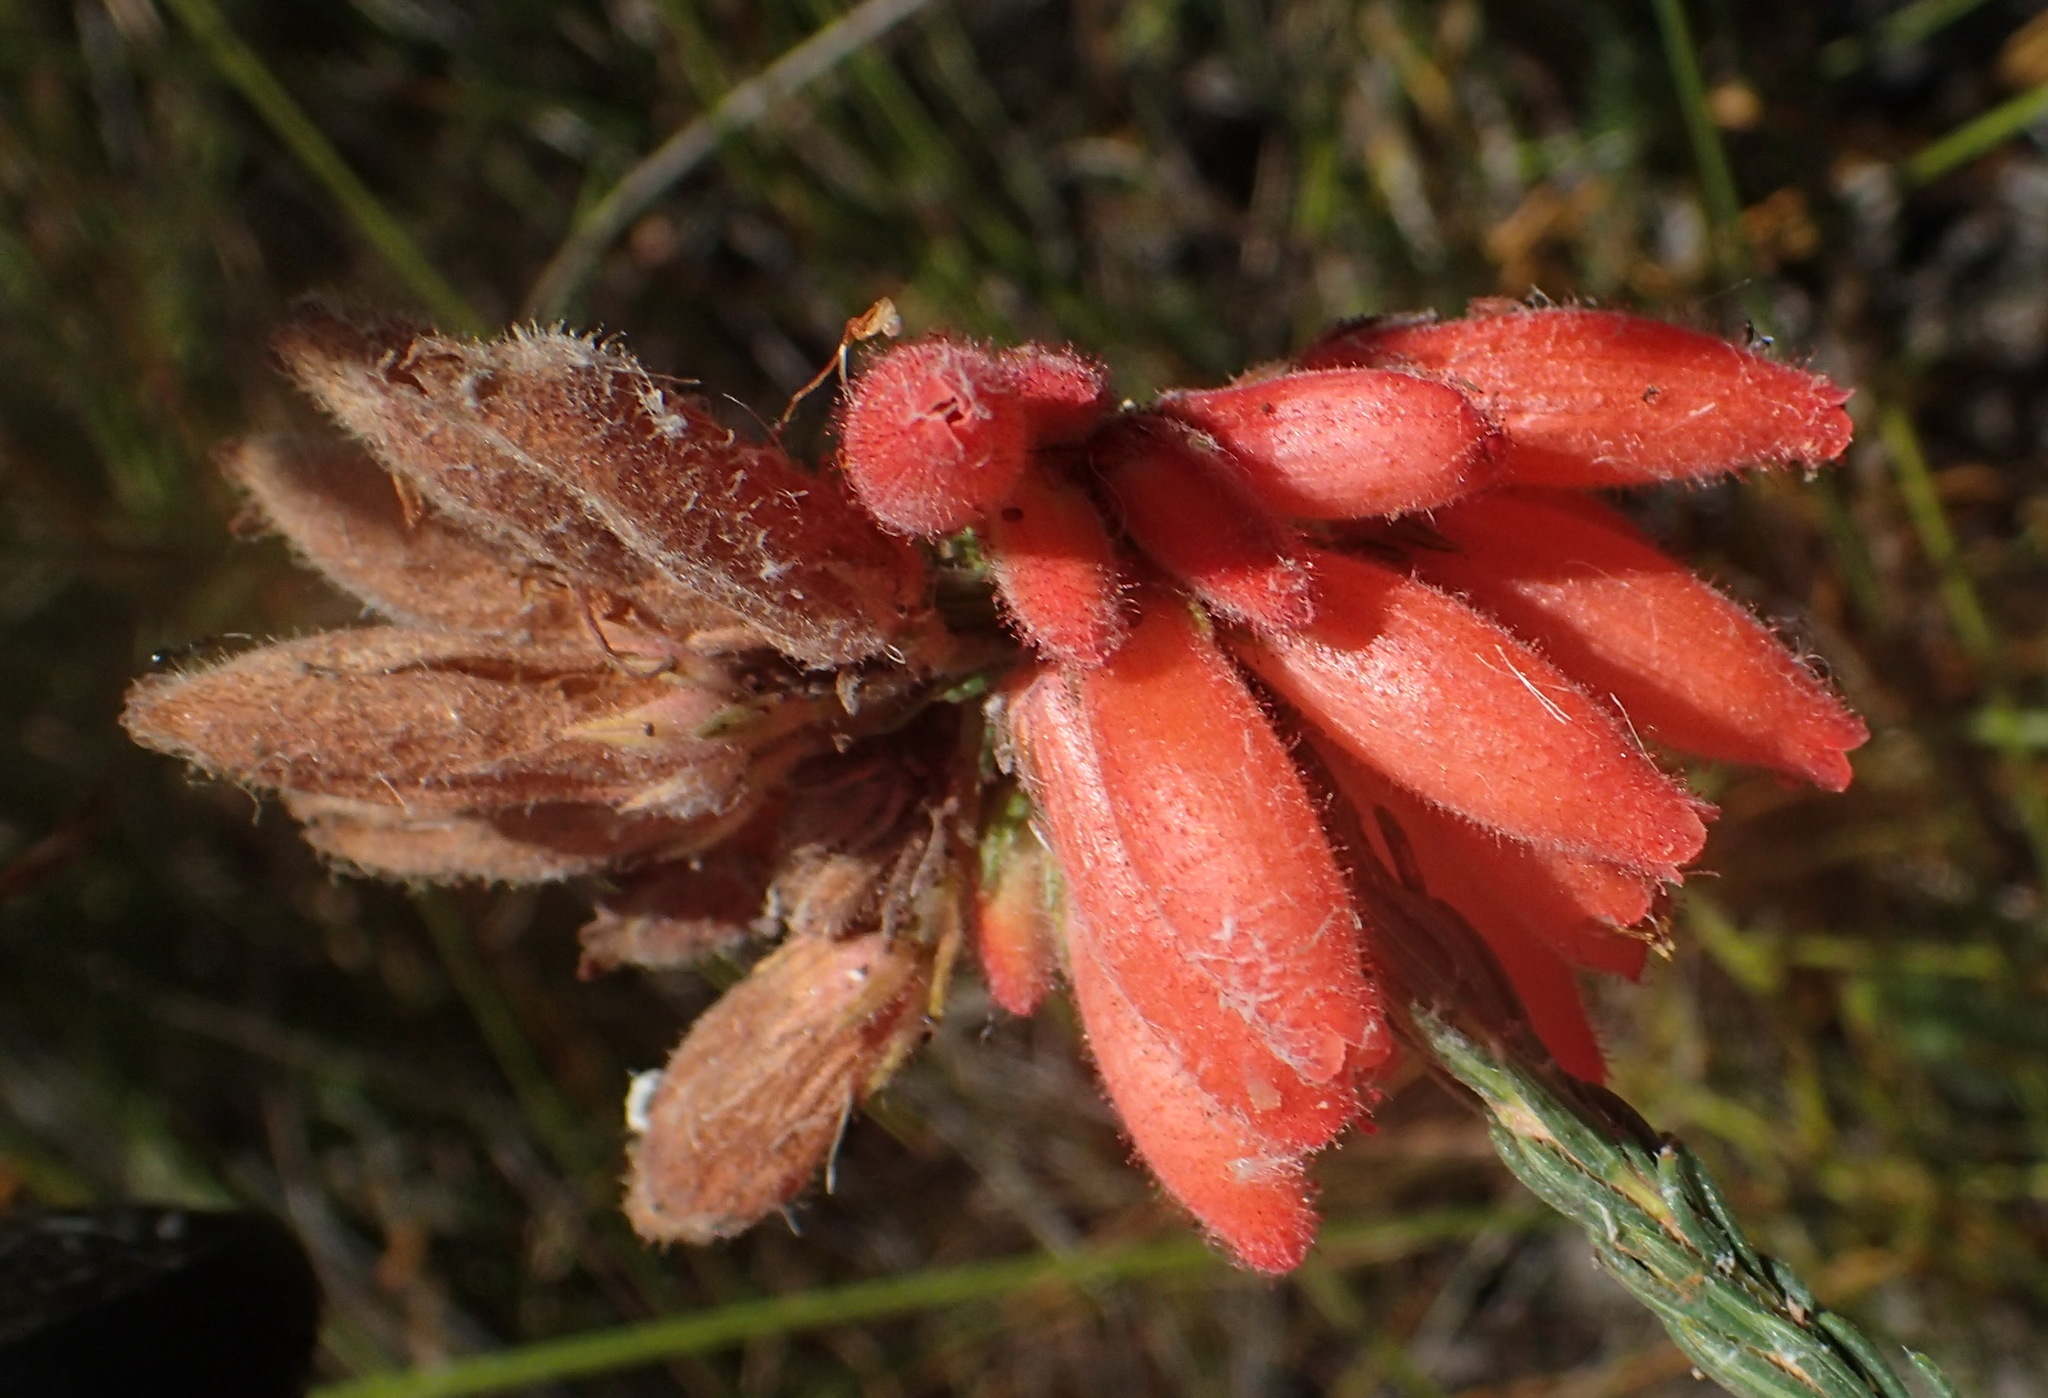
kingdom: Plantae
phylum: Tracheophyta
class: Magnoliopsida
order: Ericales
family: Ericaceae
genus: Erica
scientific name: Erica cerinthoides
